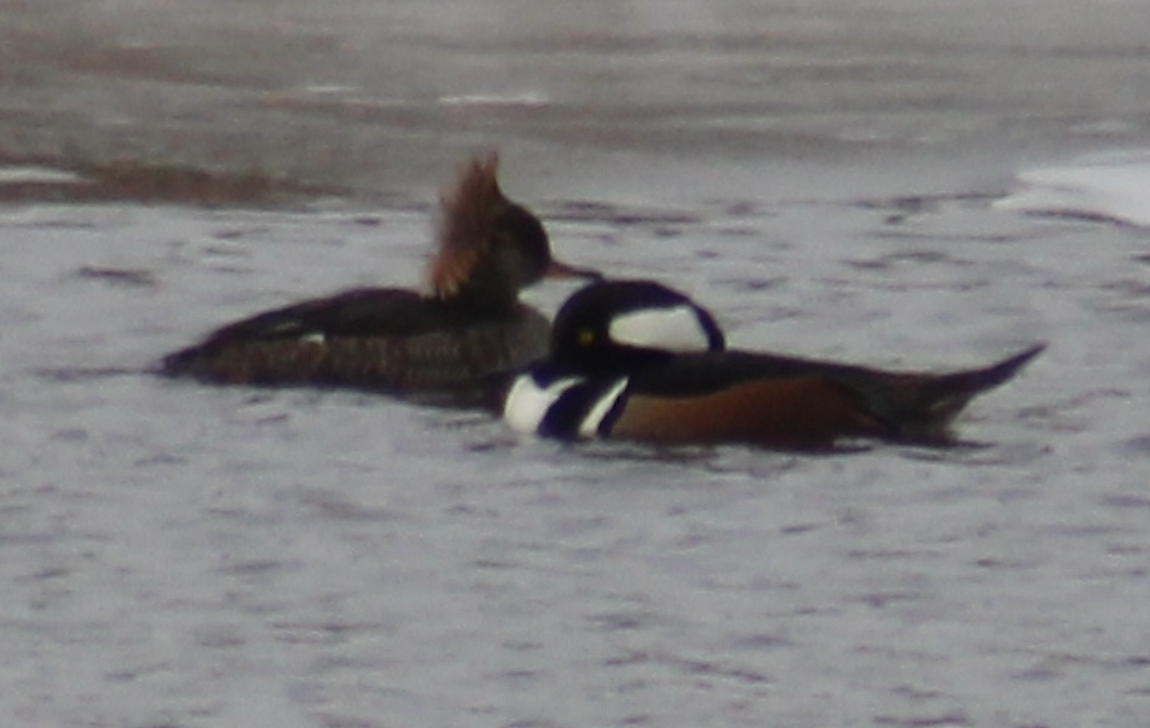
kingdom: Animalia
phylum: Chordata
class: Aves
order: Anseriformes
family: Anatidae
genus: Lophodytes
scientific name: Lophodytes cucullatus
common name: Hooded merganser
